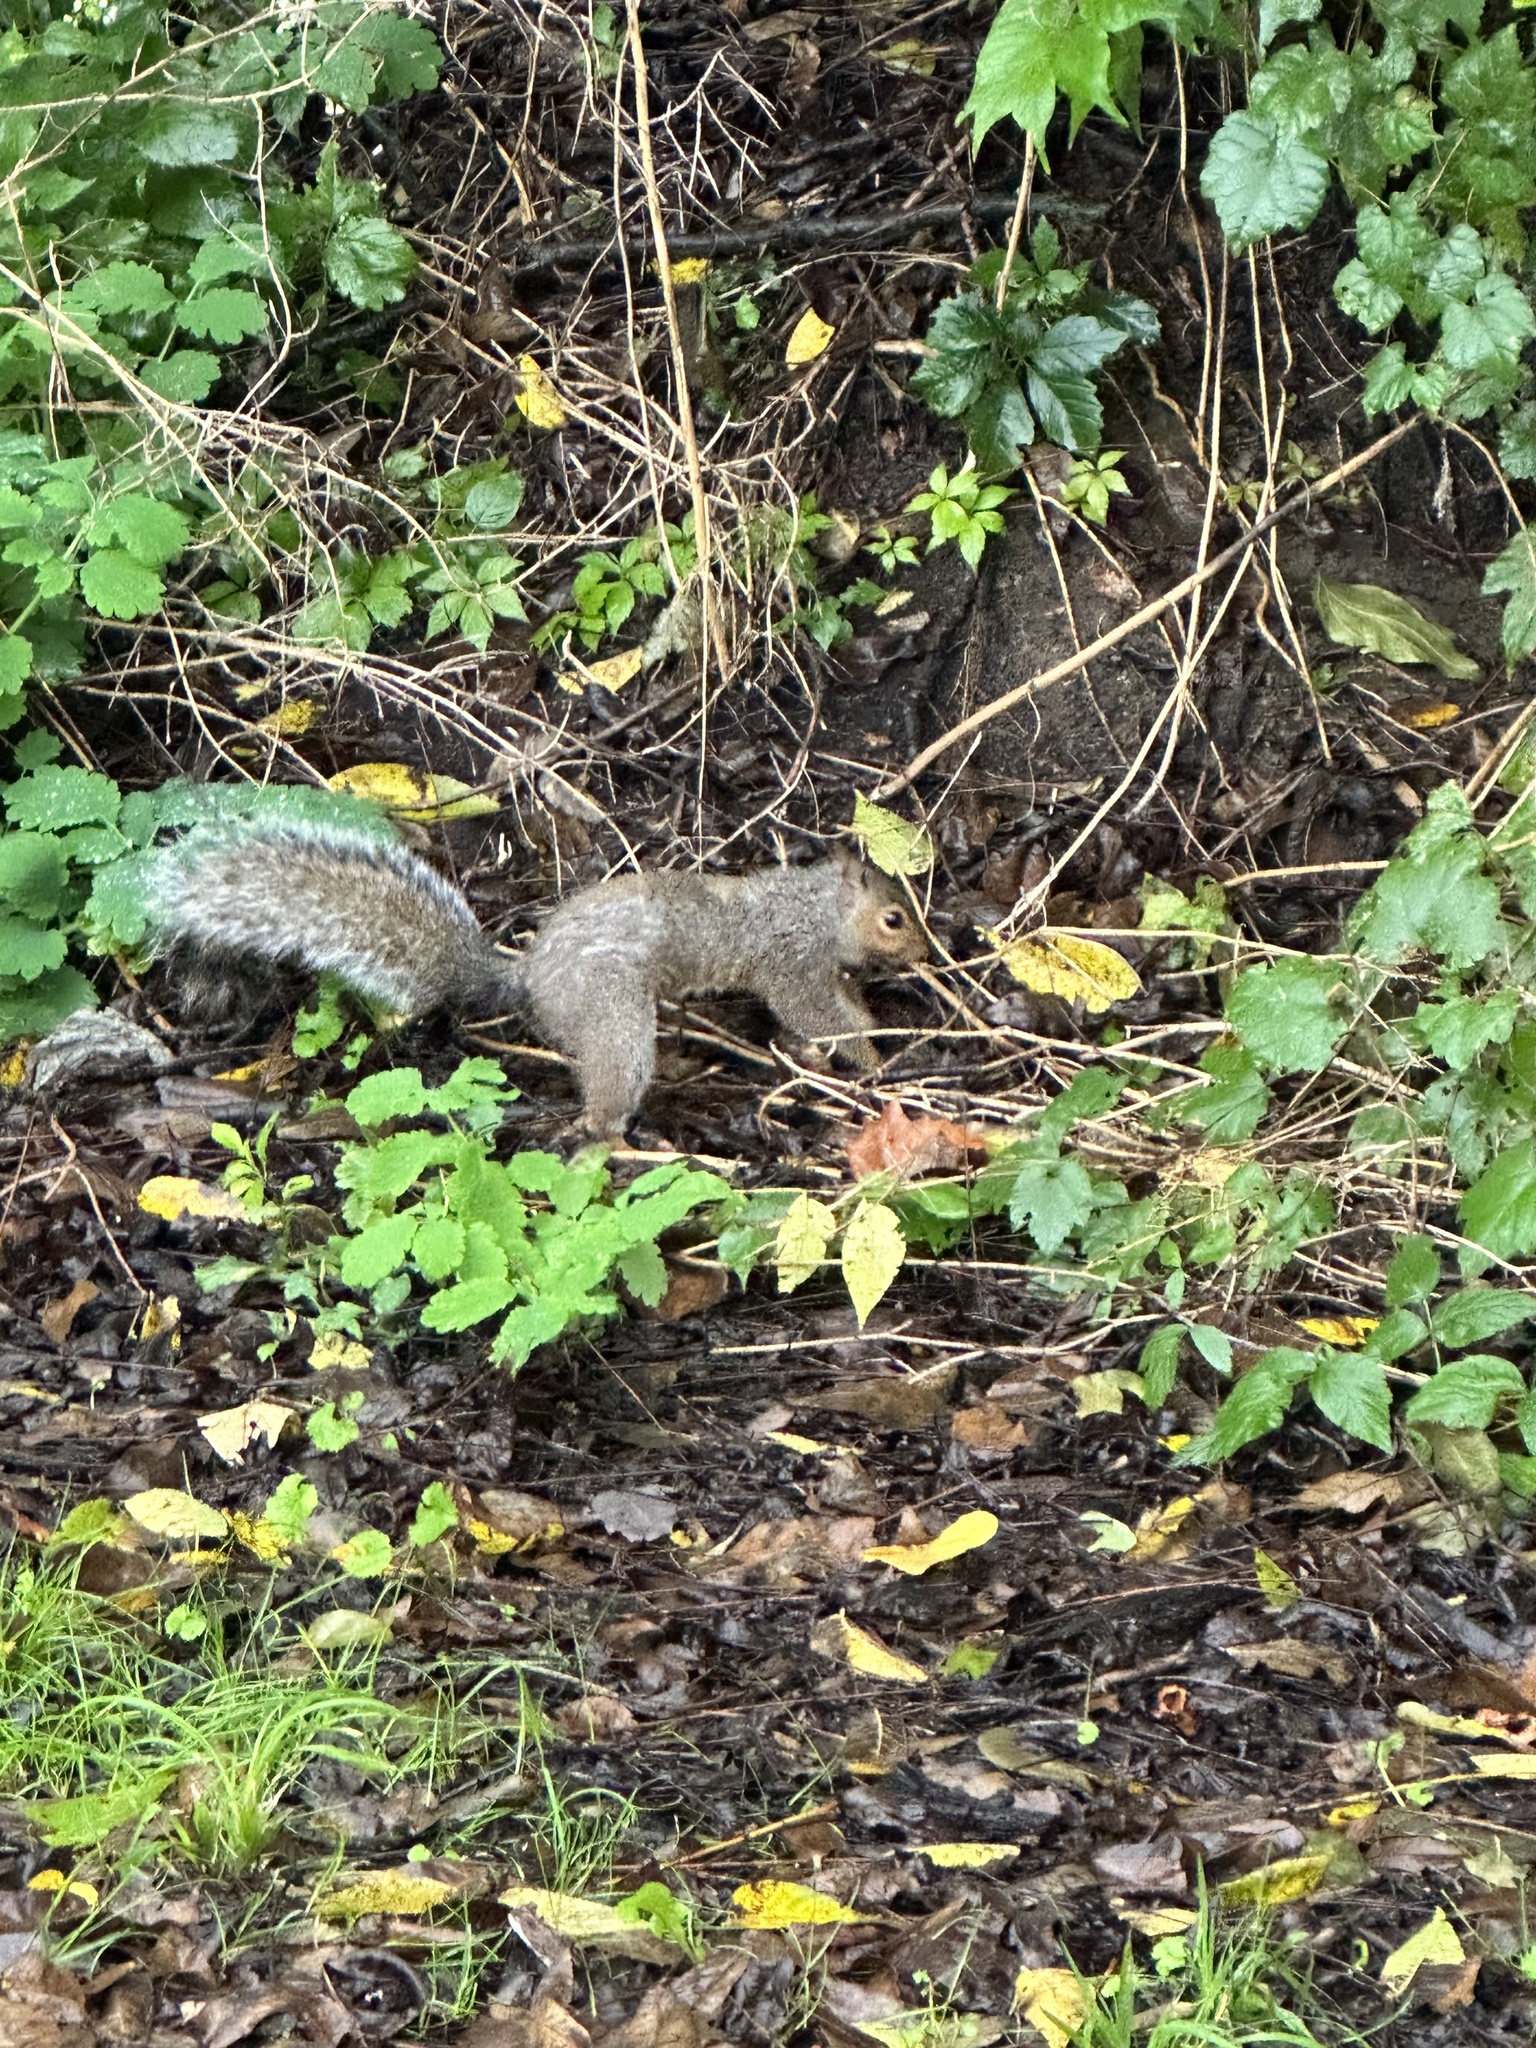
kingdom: Animalia
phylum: Chordata
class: Mammalia
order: Rodentia
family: Sciuridae
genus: Sciurus
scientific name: Sciurus carolinensis
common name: Eastern gray squirrel
